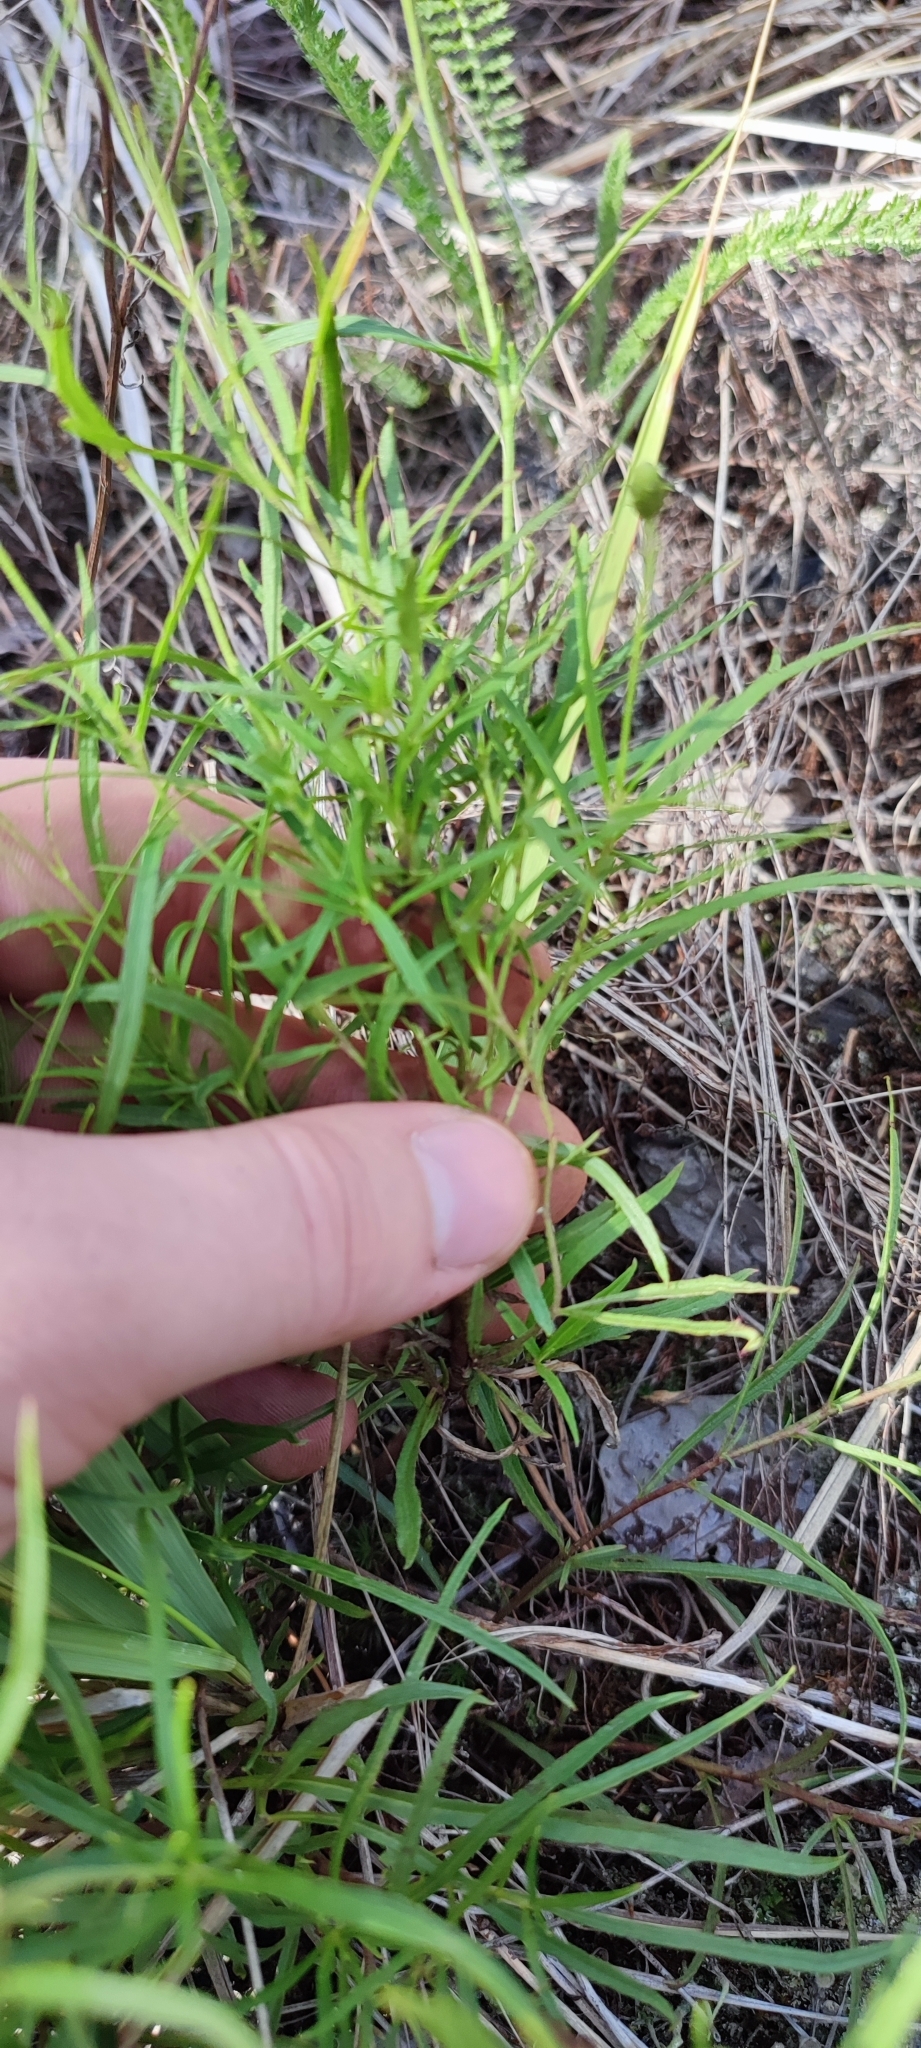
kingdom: Plantae
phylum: Tracheophyta
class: Magnoliopsida
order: Asterales
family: Asteraceae
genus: Hieracium
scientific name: Hieracium umbellatum
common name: Northern hawkweed
